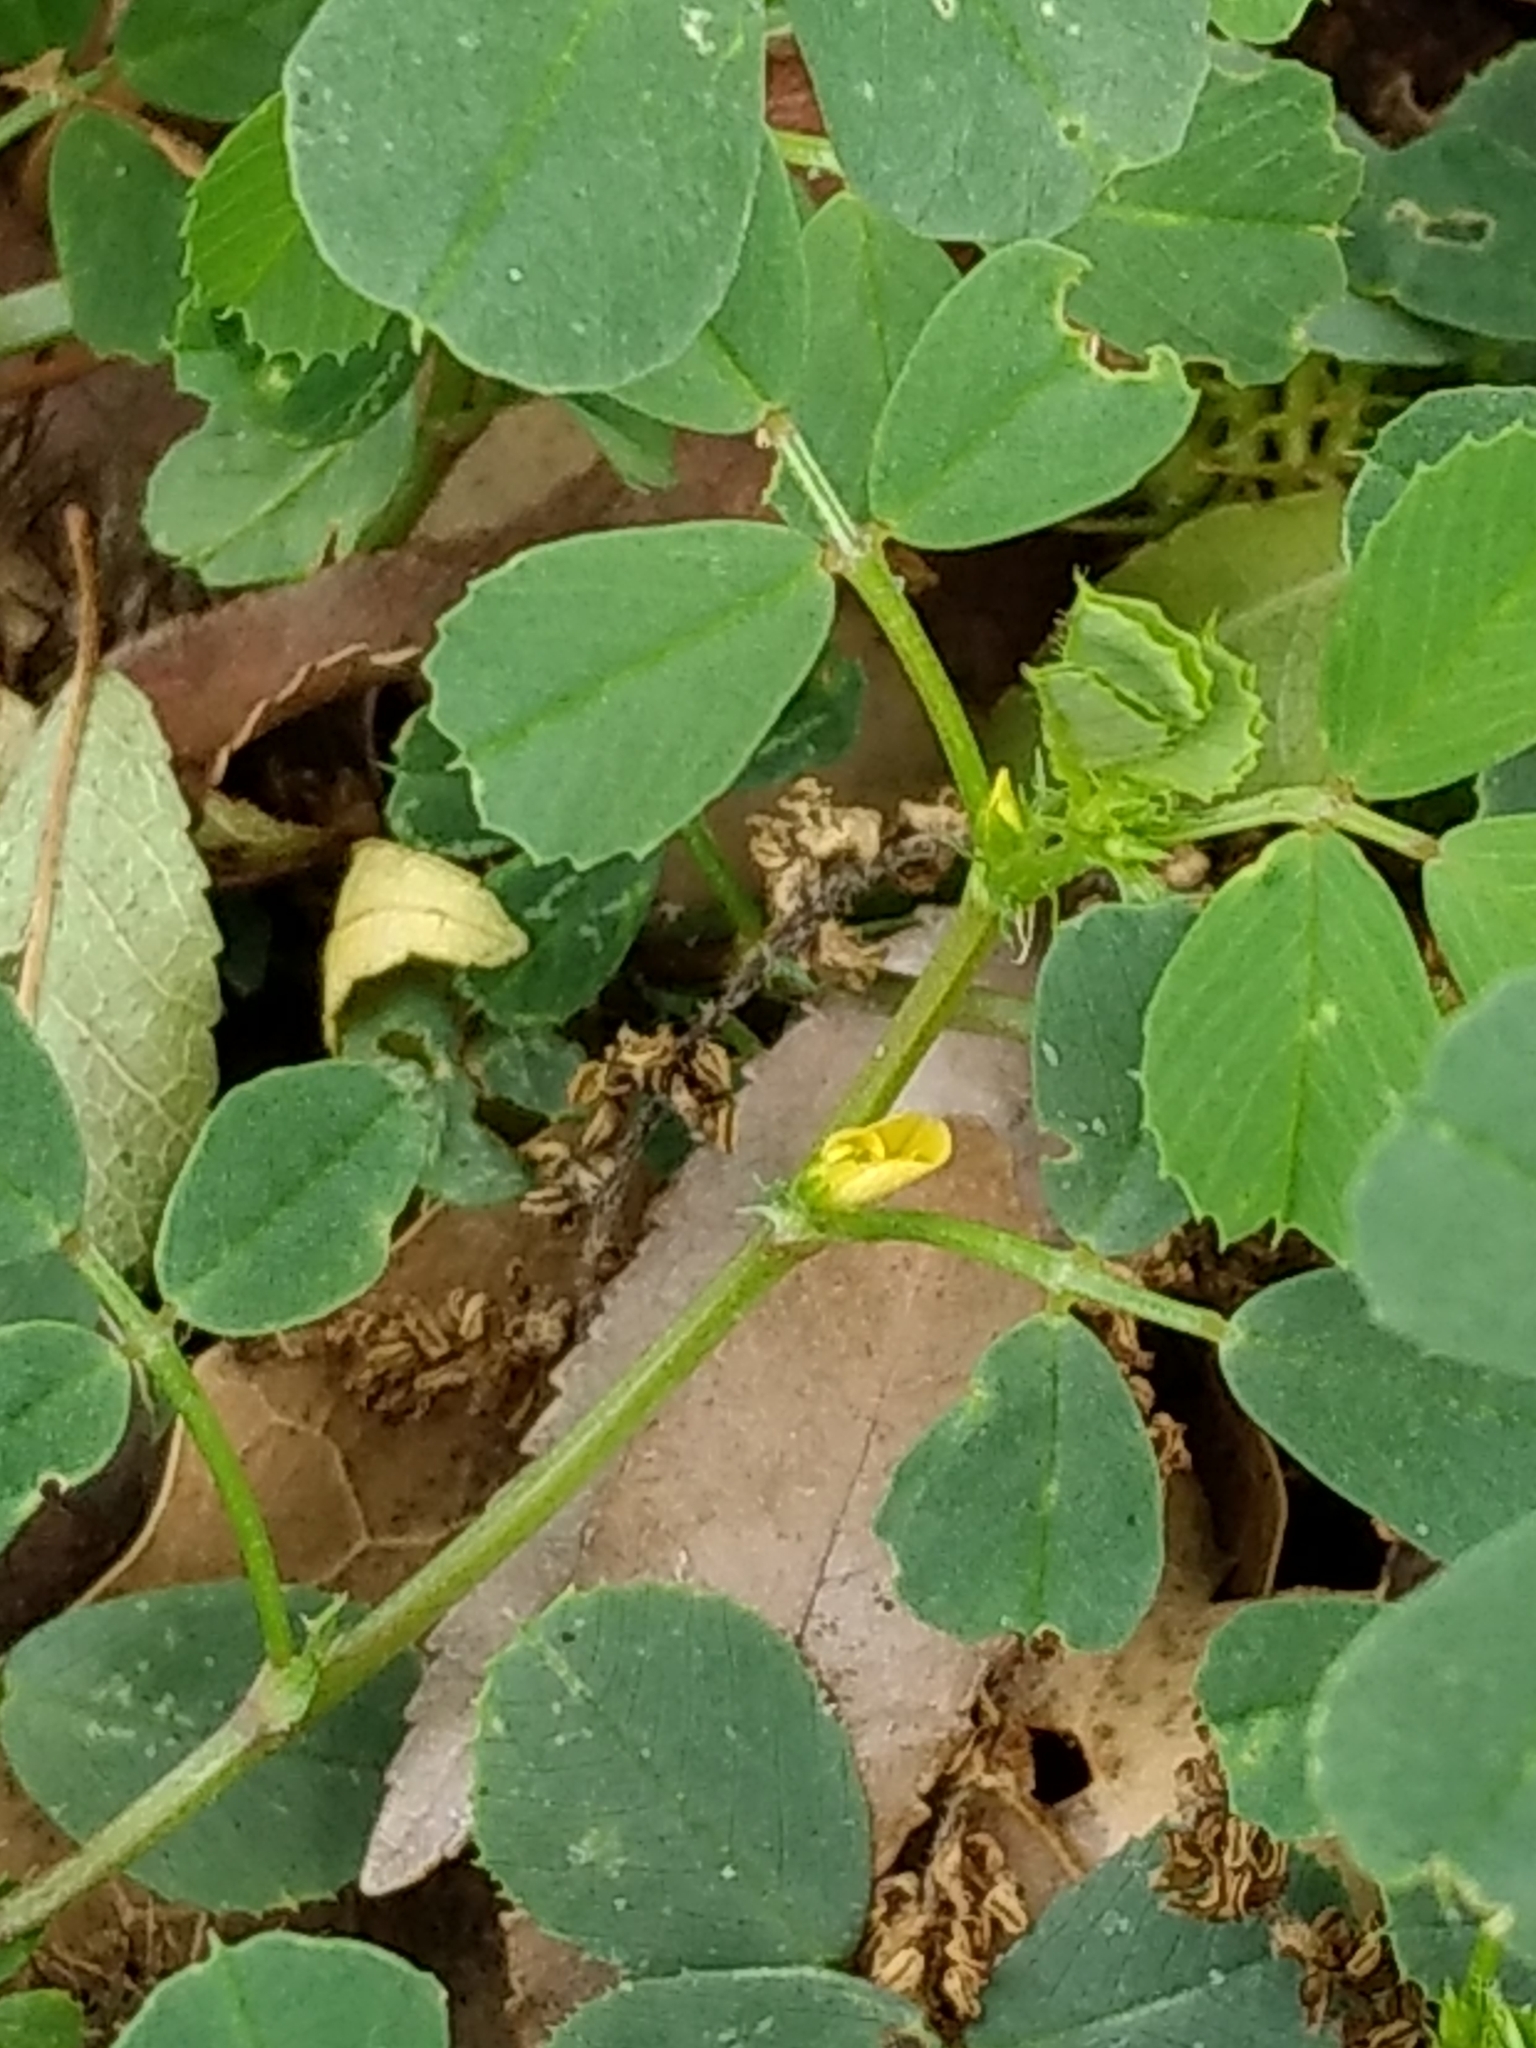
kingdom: Plantae
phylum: Tracheophyta
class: Magnoliopsida
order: Fabales
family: Fabaceae
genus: Medicago
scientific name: Medicago polymorpha
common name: Burclover
